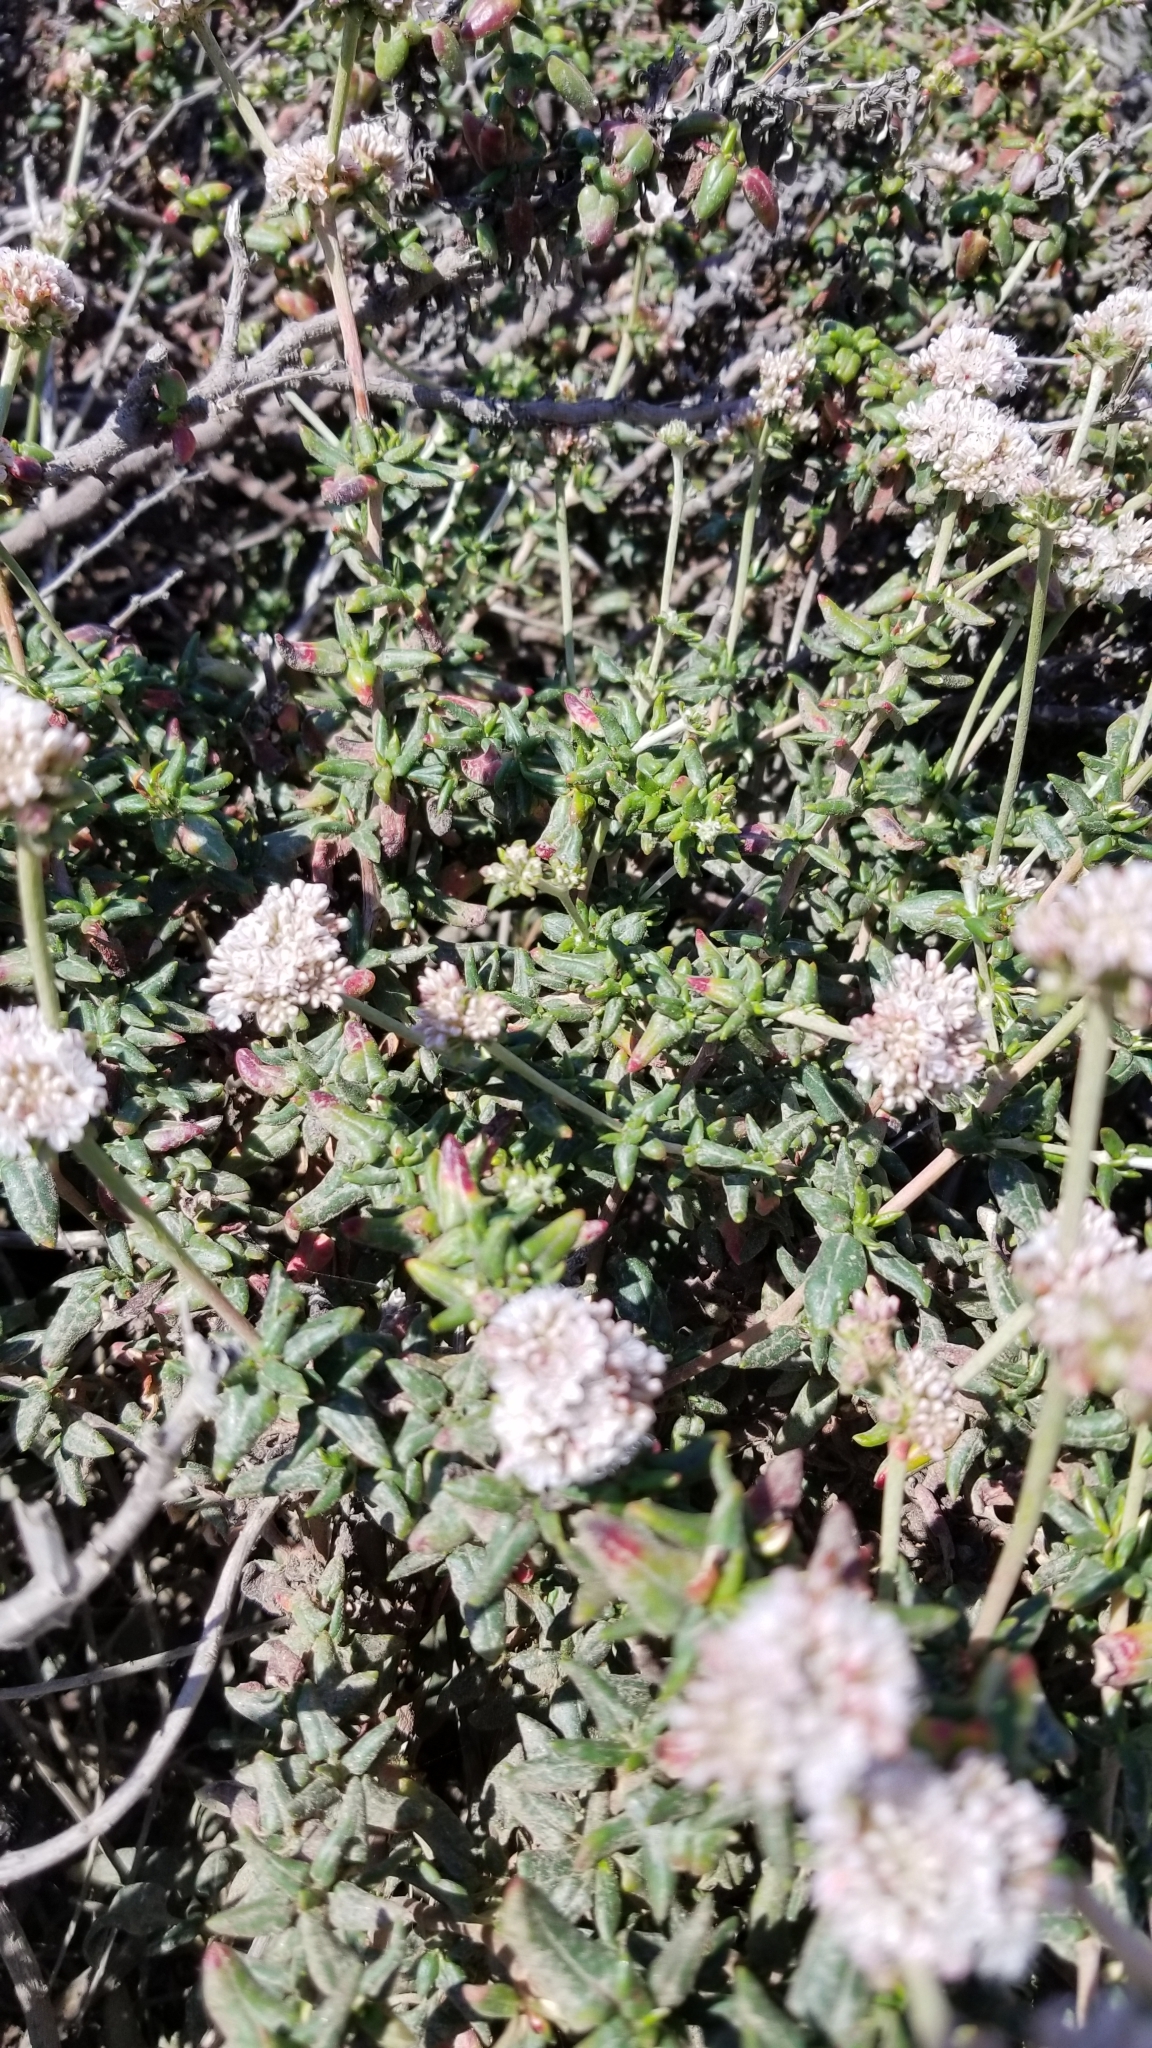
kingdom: Plantae
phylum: Tracheophyta
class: Magnoliopsida
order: Caryophyllales
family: Polygonaceae
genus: Eriogonum
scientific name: Eriogonum parvifolium
